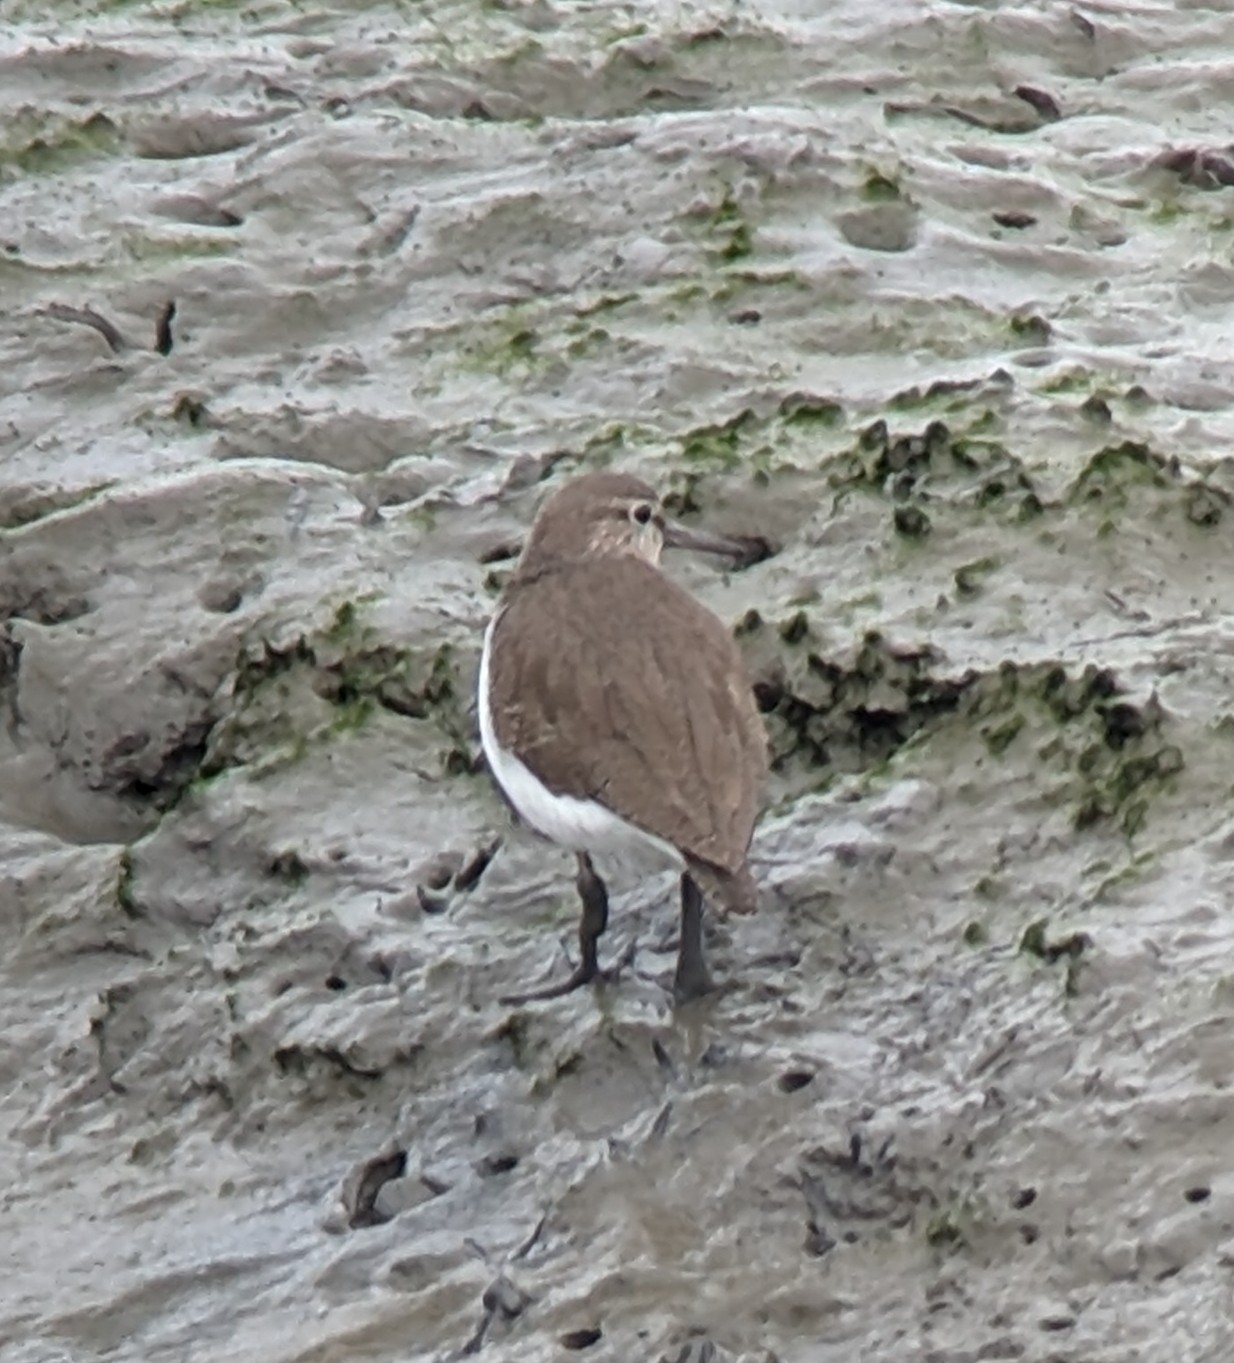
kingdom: Animalia
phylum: Chordata
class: Aves
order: Charadriiformes
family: Scolopacidae
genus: Actitis
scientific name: Actitis hypoleucos
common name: Common sandpiper
